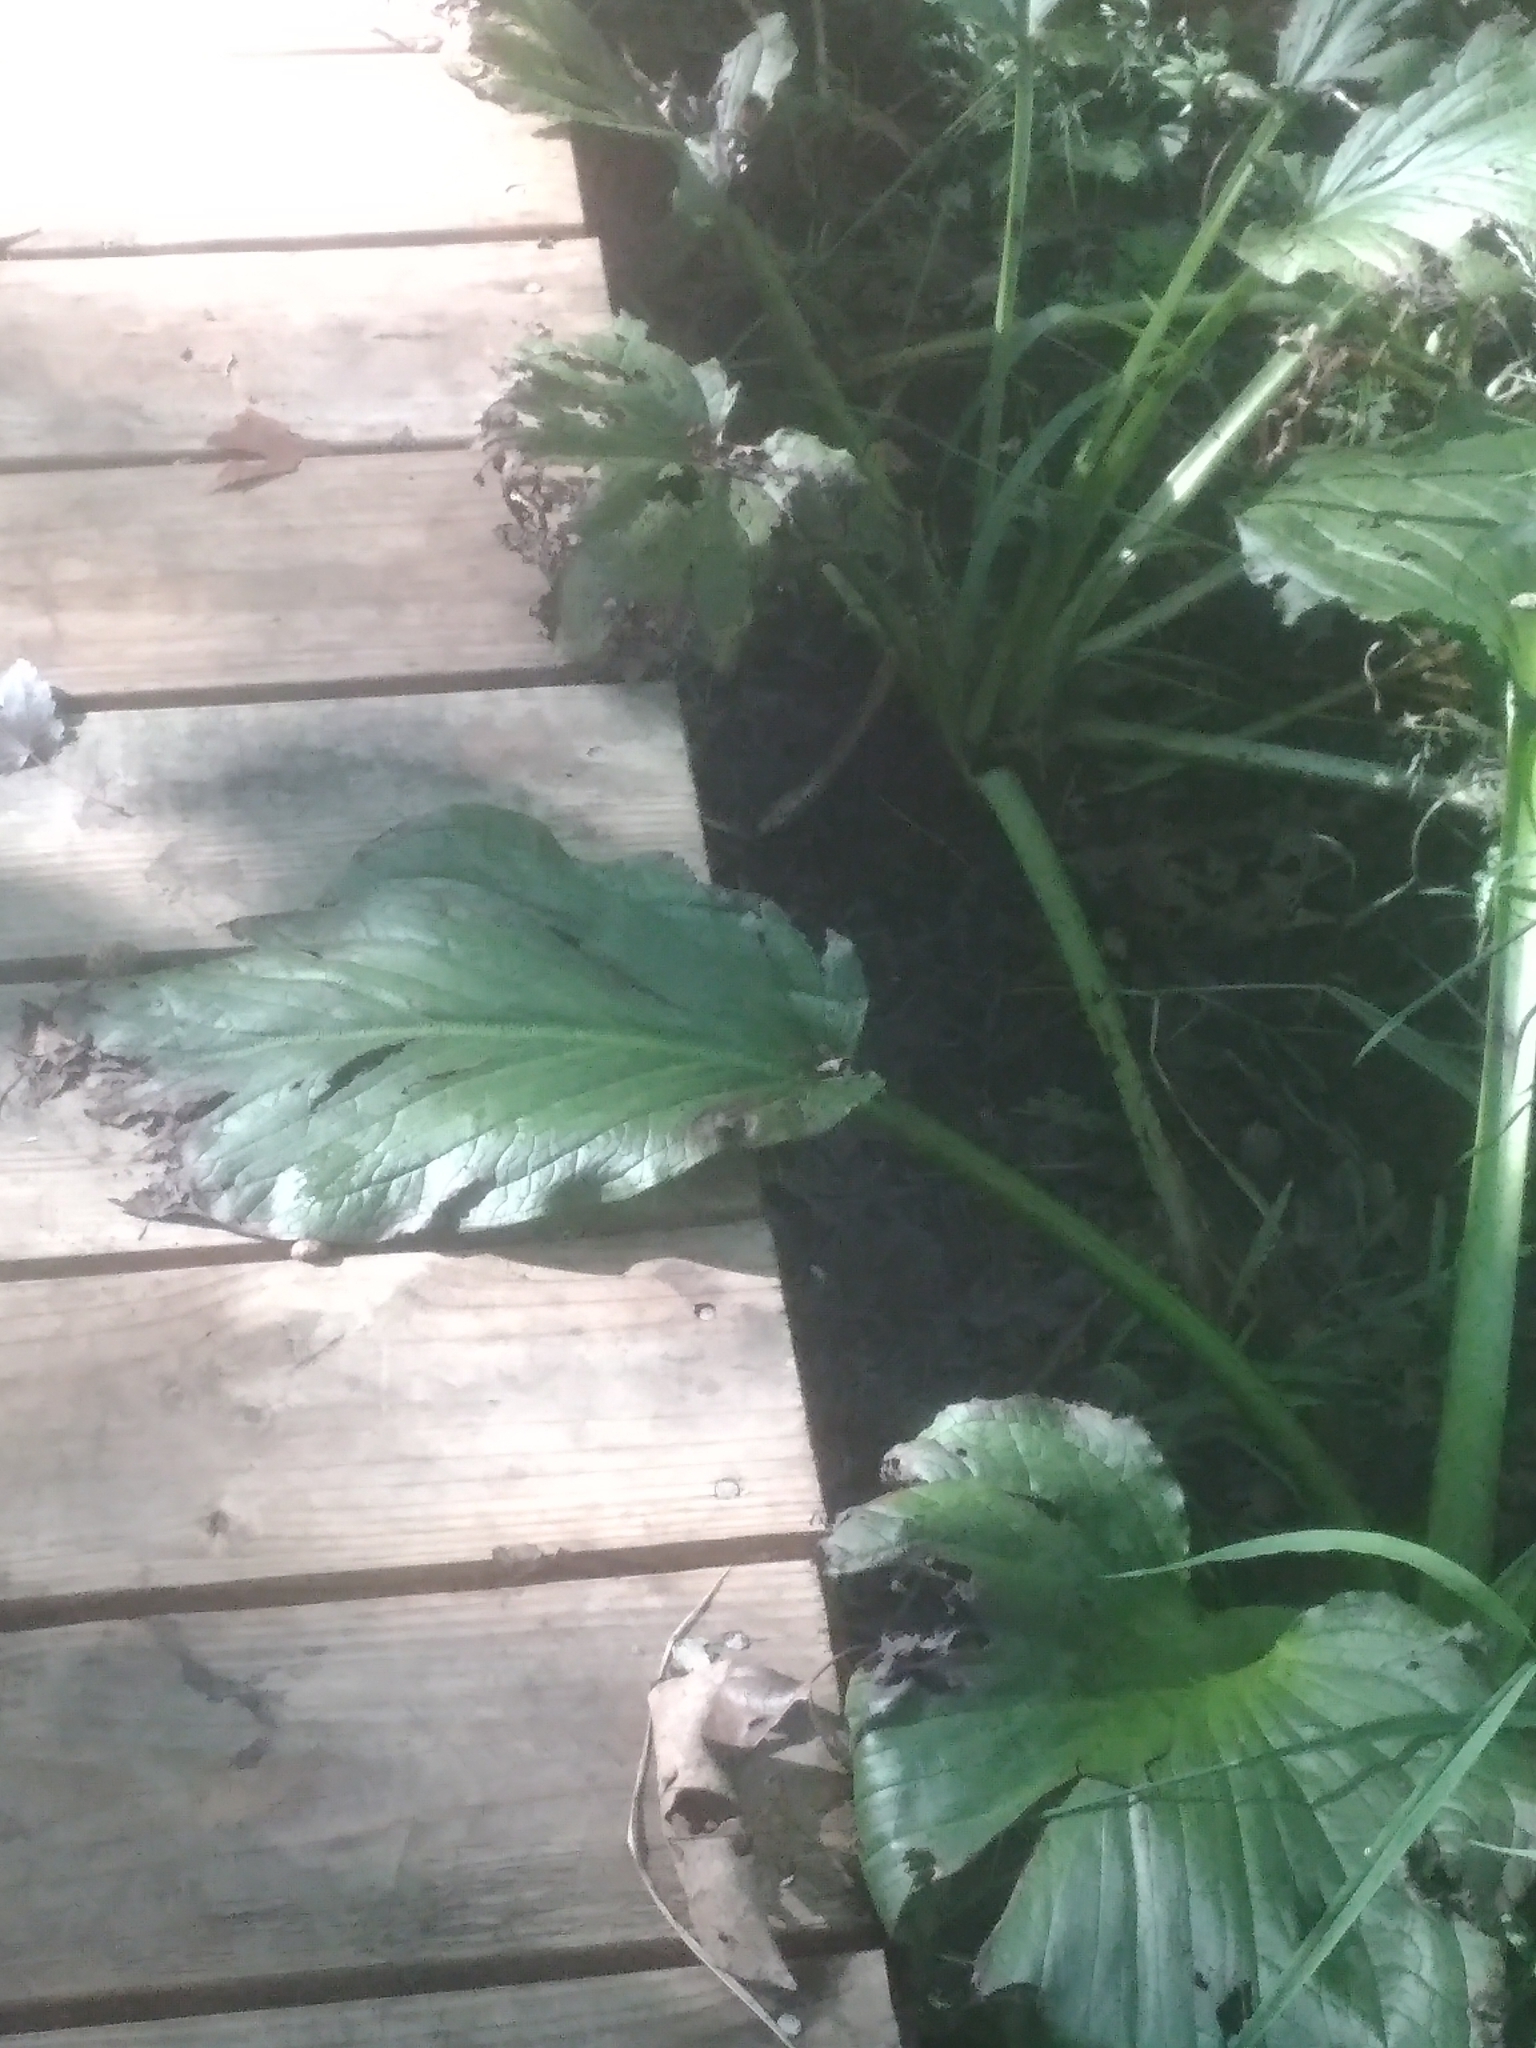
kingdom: Plantae
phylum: Tracheophyta
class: Liliopsida
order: Alismatales
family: Araceae
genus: Symplocarpus
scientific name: Symplocarpus foetidus
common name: Eastern skunk cabbage
